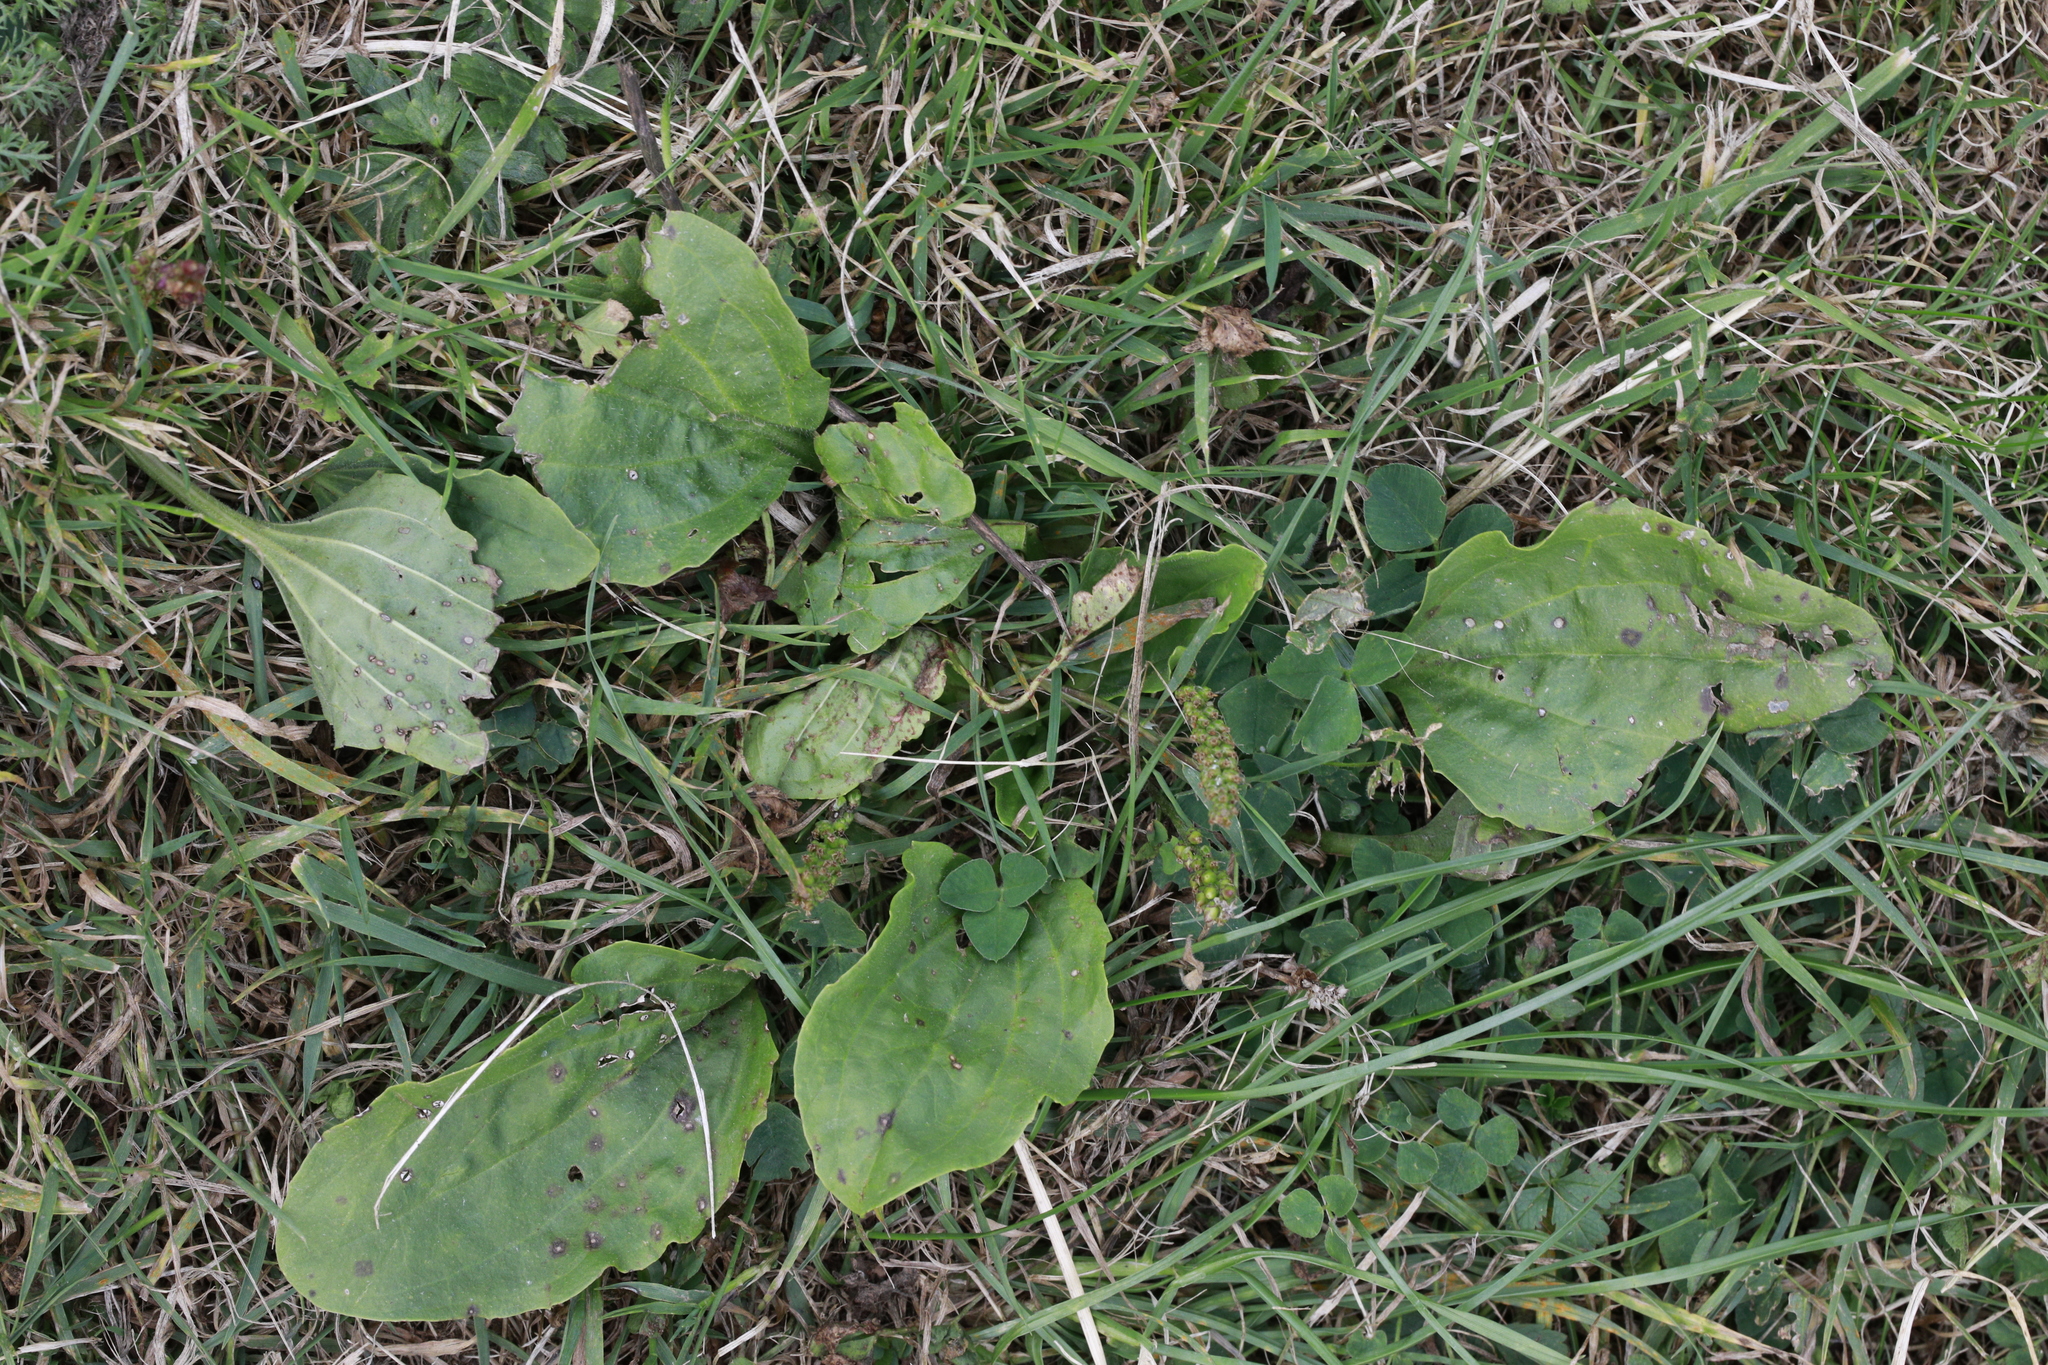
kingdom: Plantae
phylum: Tracheophyta
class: Magnoliopsida
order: Lamiales
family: Plantaginaceae
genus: Plantago
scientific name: Plantago major
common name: Common plantain
